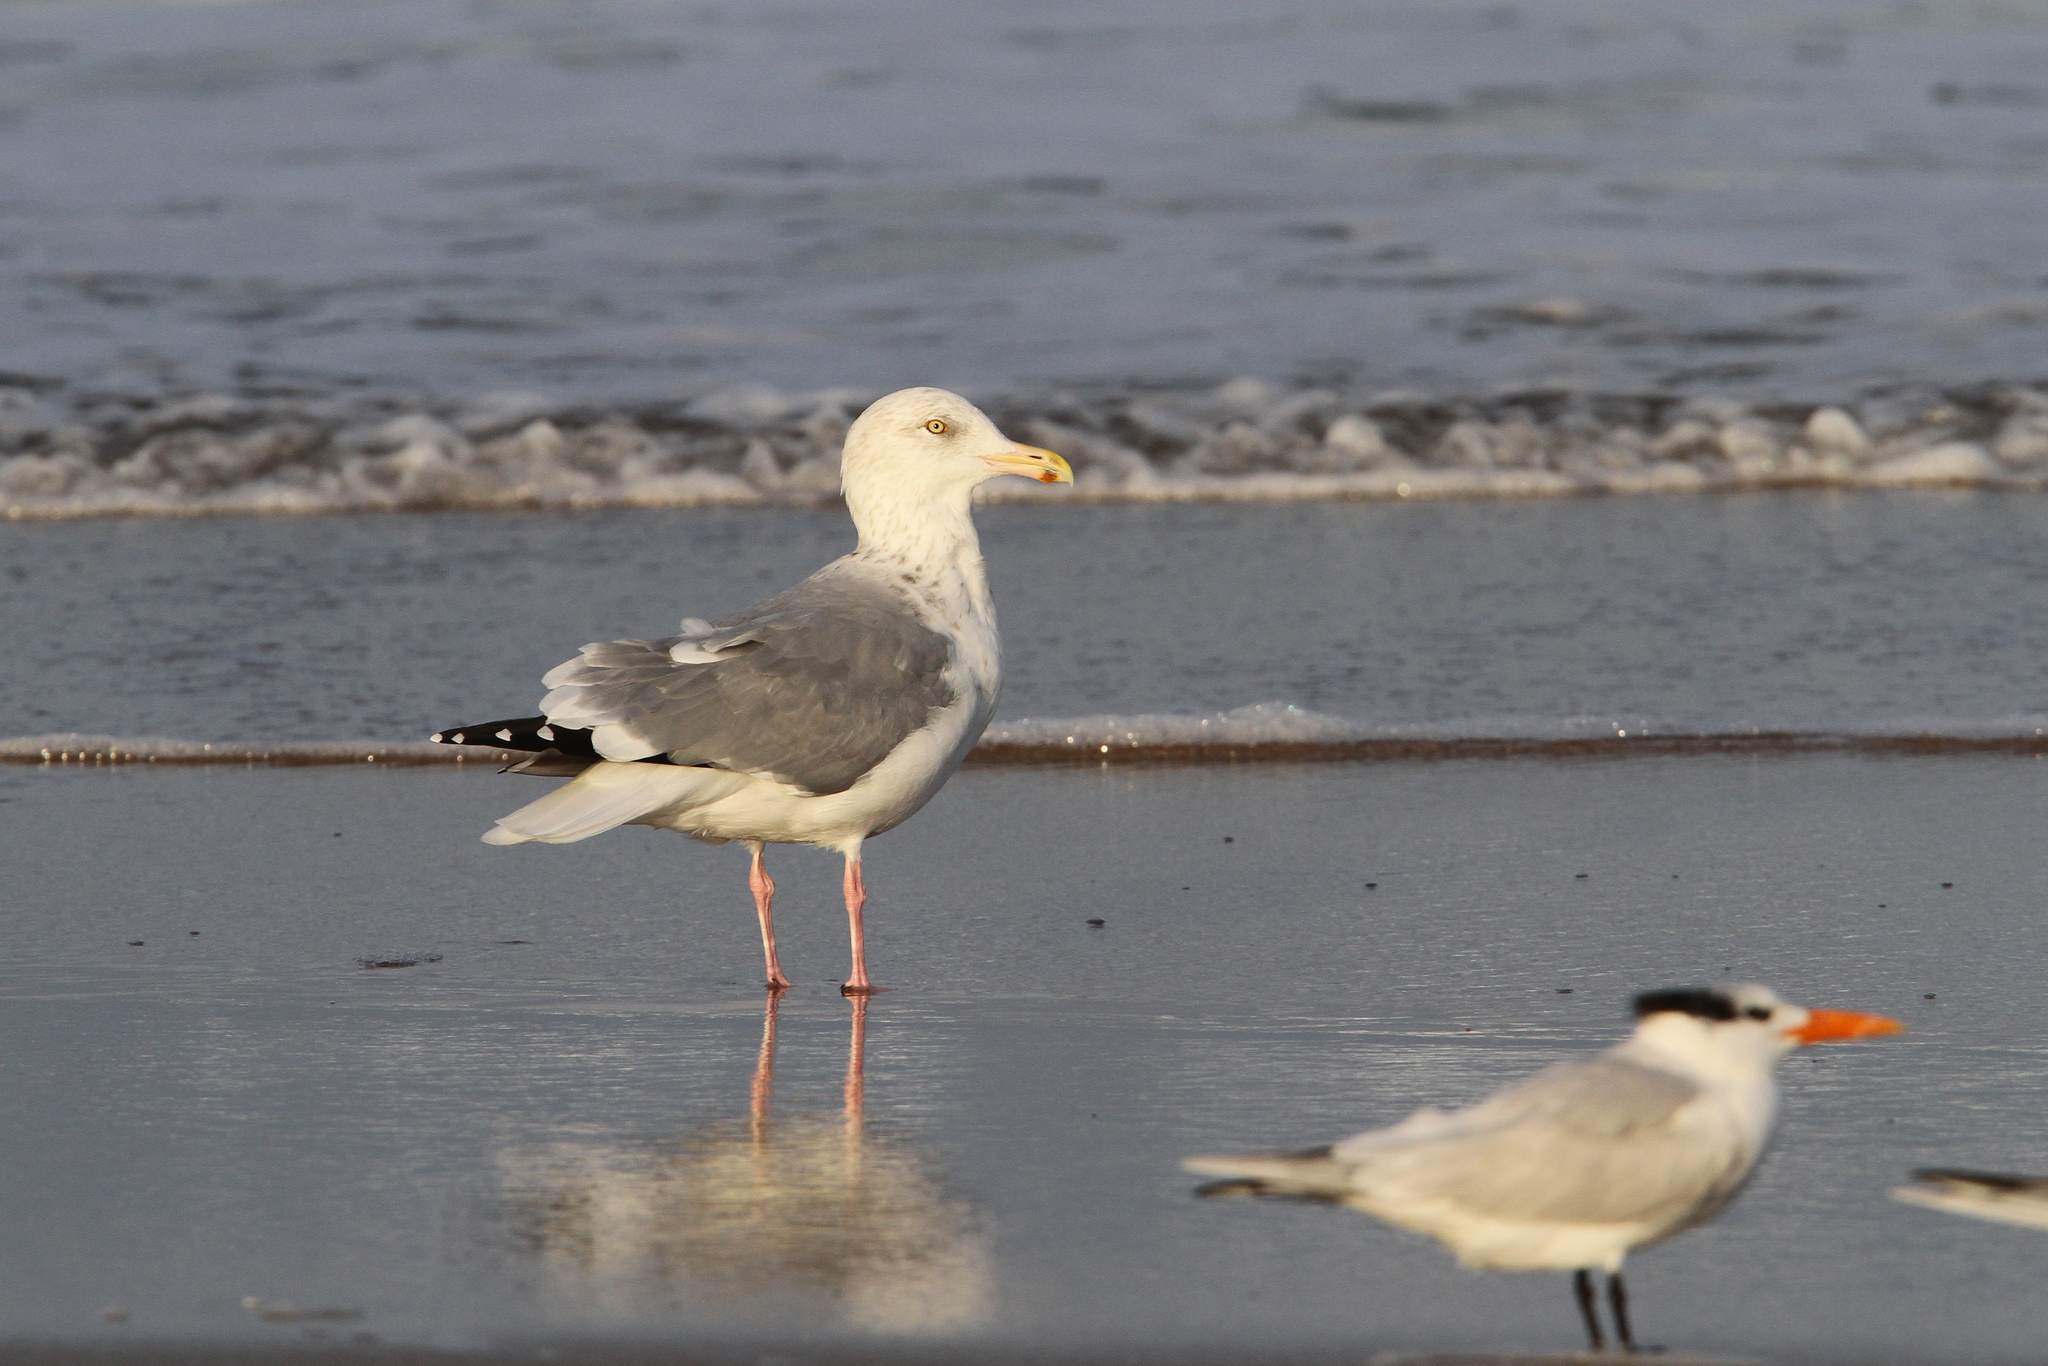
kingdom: Animalia
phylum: Chordata
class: Aves
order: Charadriiformes
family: Laridae
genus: Larus
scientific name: Larus argentatus
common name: Herring gull
